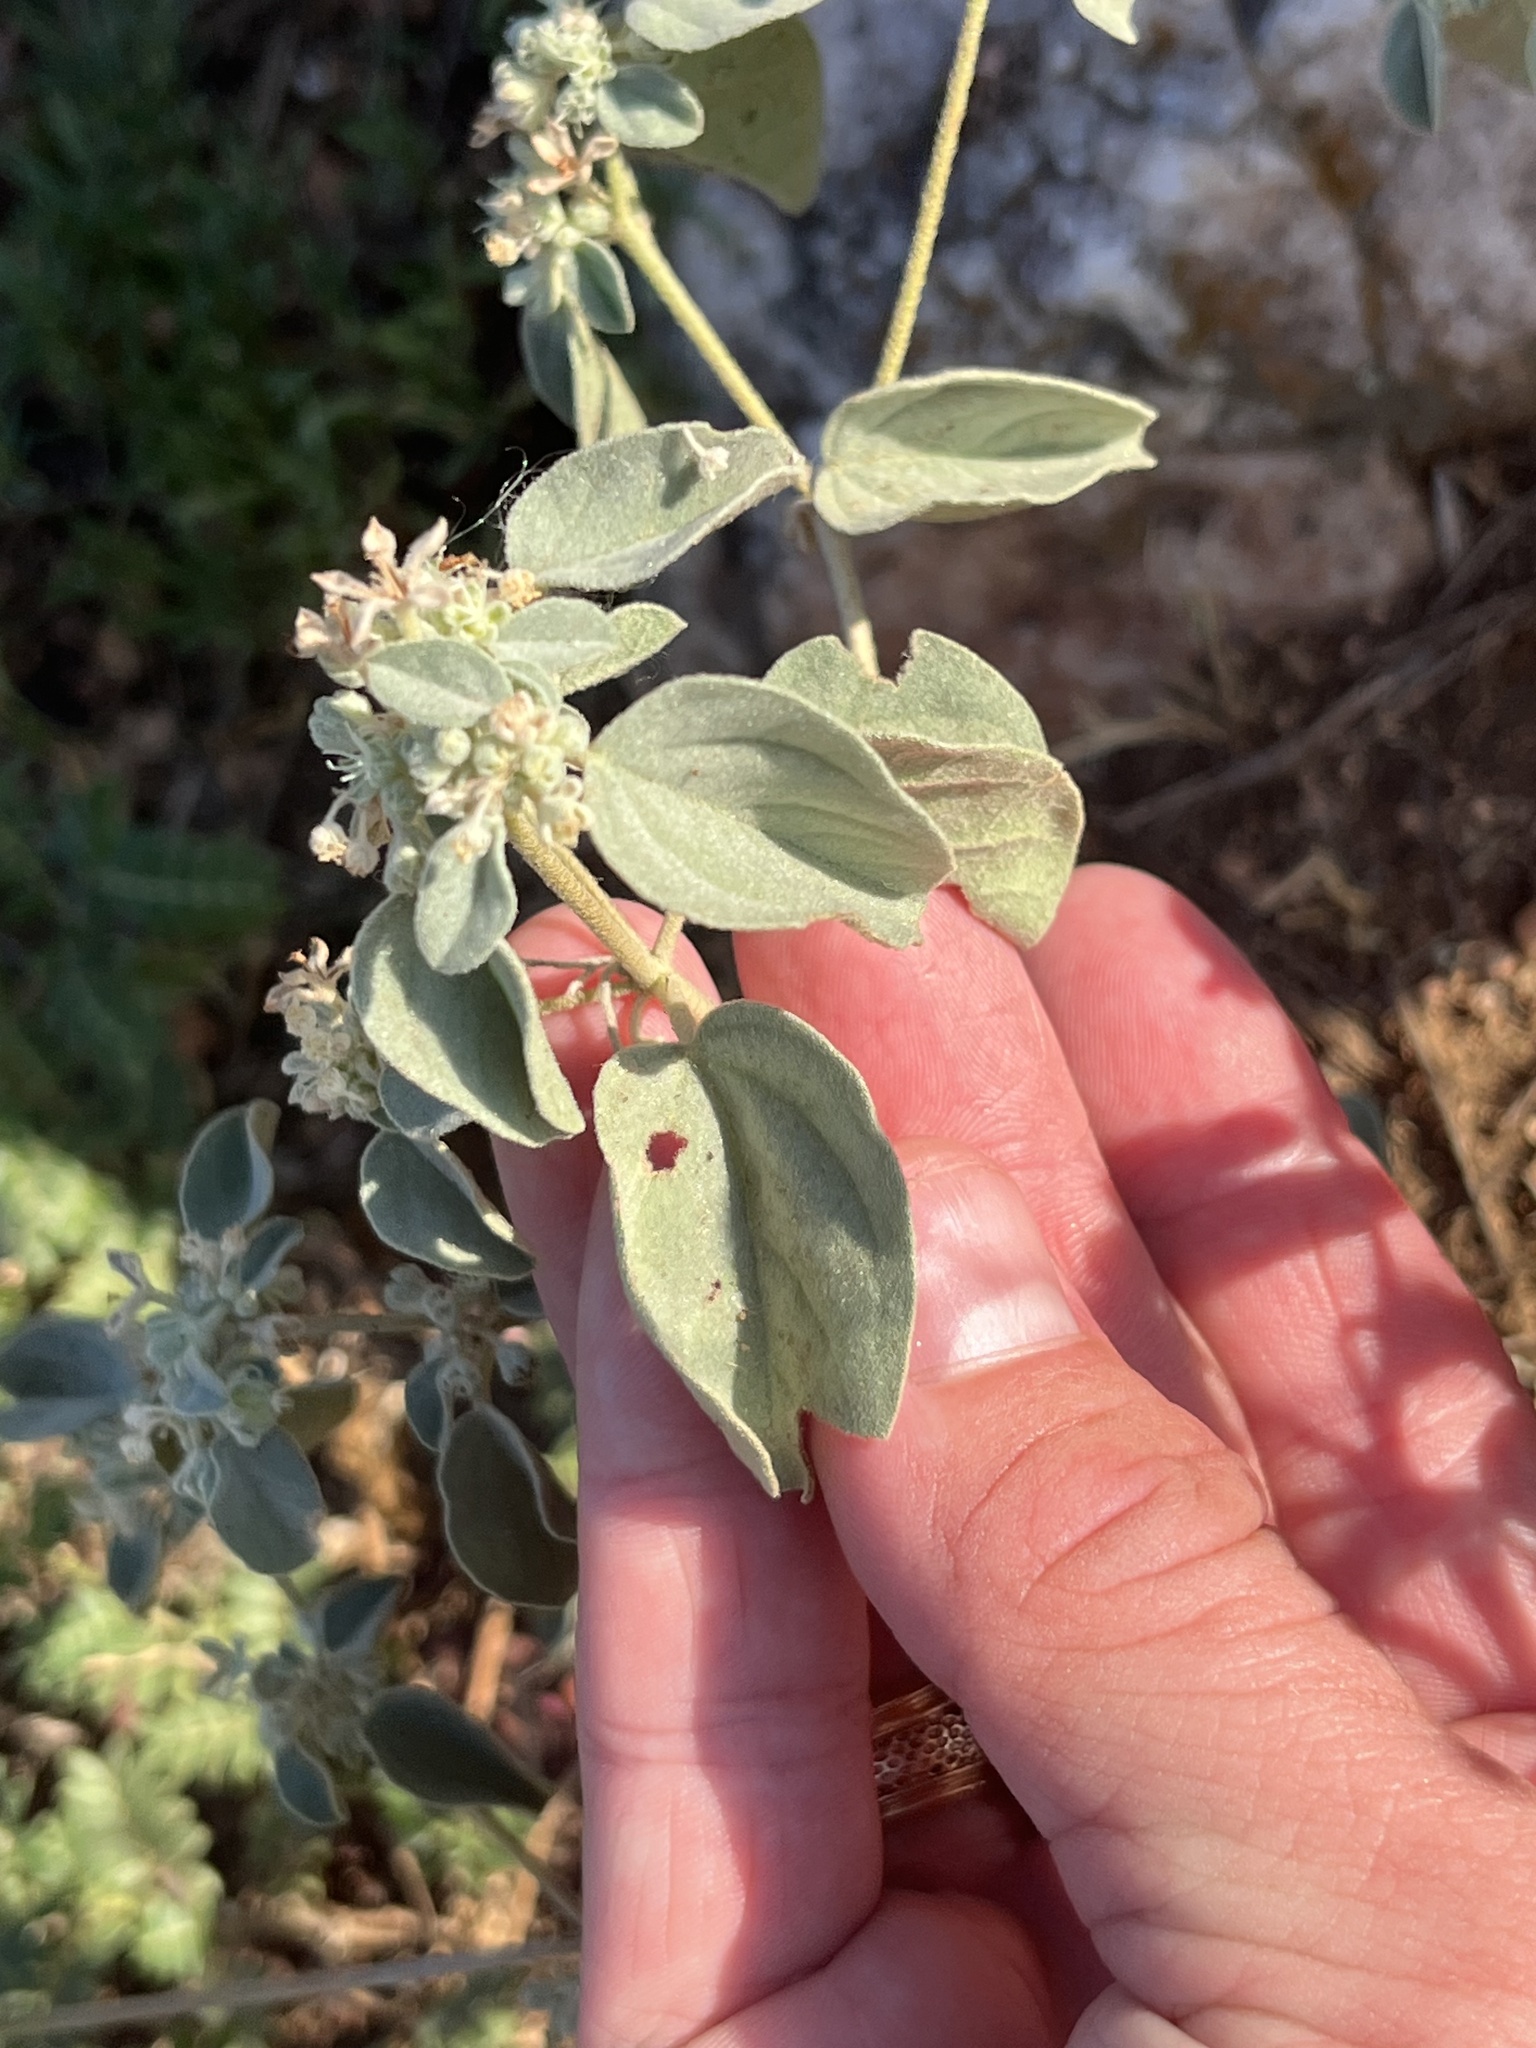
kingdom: Plantae
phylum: Tracheophyta
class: Magnoliopsida
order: Malpighiales
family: Euphorbiaceae
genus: Croton
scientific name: Croton lindheimerianus
